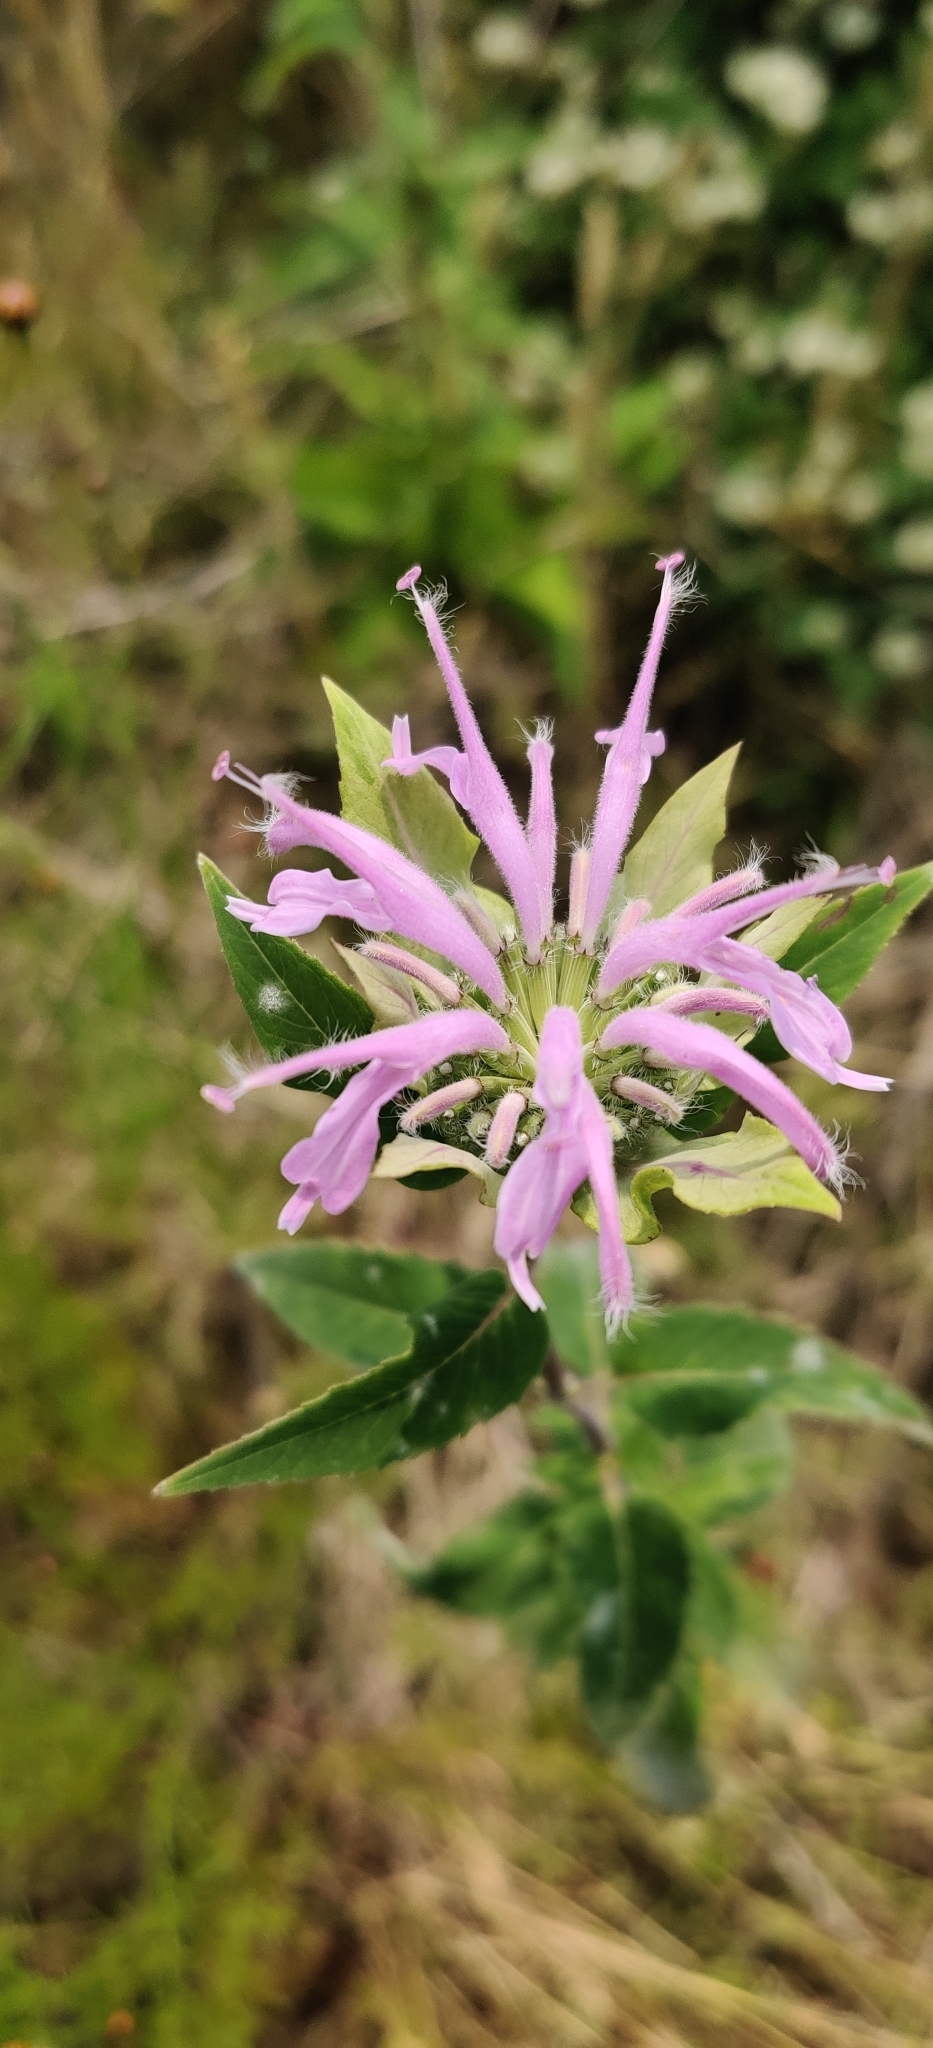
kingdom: Plantae
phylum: Tracheophyta
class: Magnoliopsida
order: Lamiales
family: Lamiaceae
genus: Monarda
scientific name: Monarda fistulosa
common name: Purple beebalm
